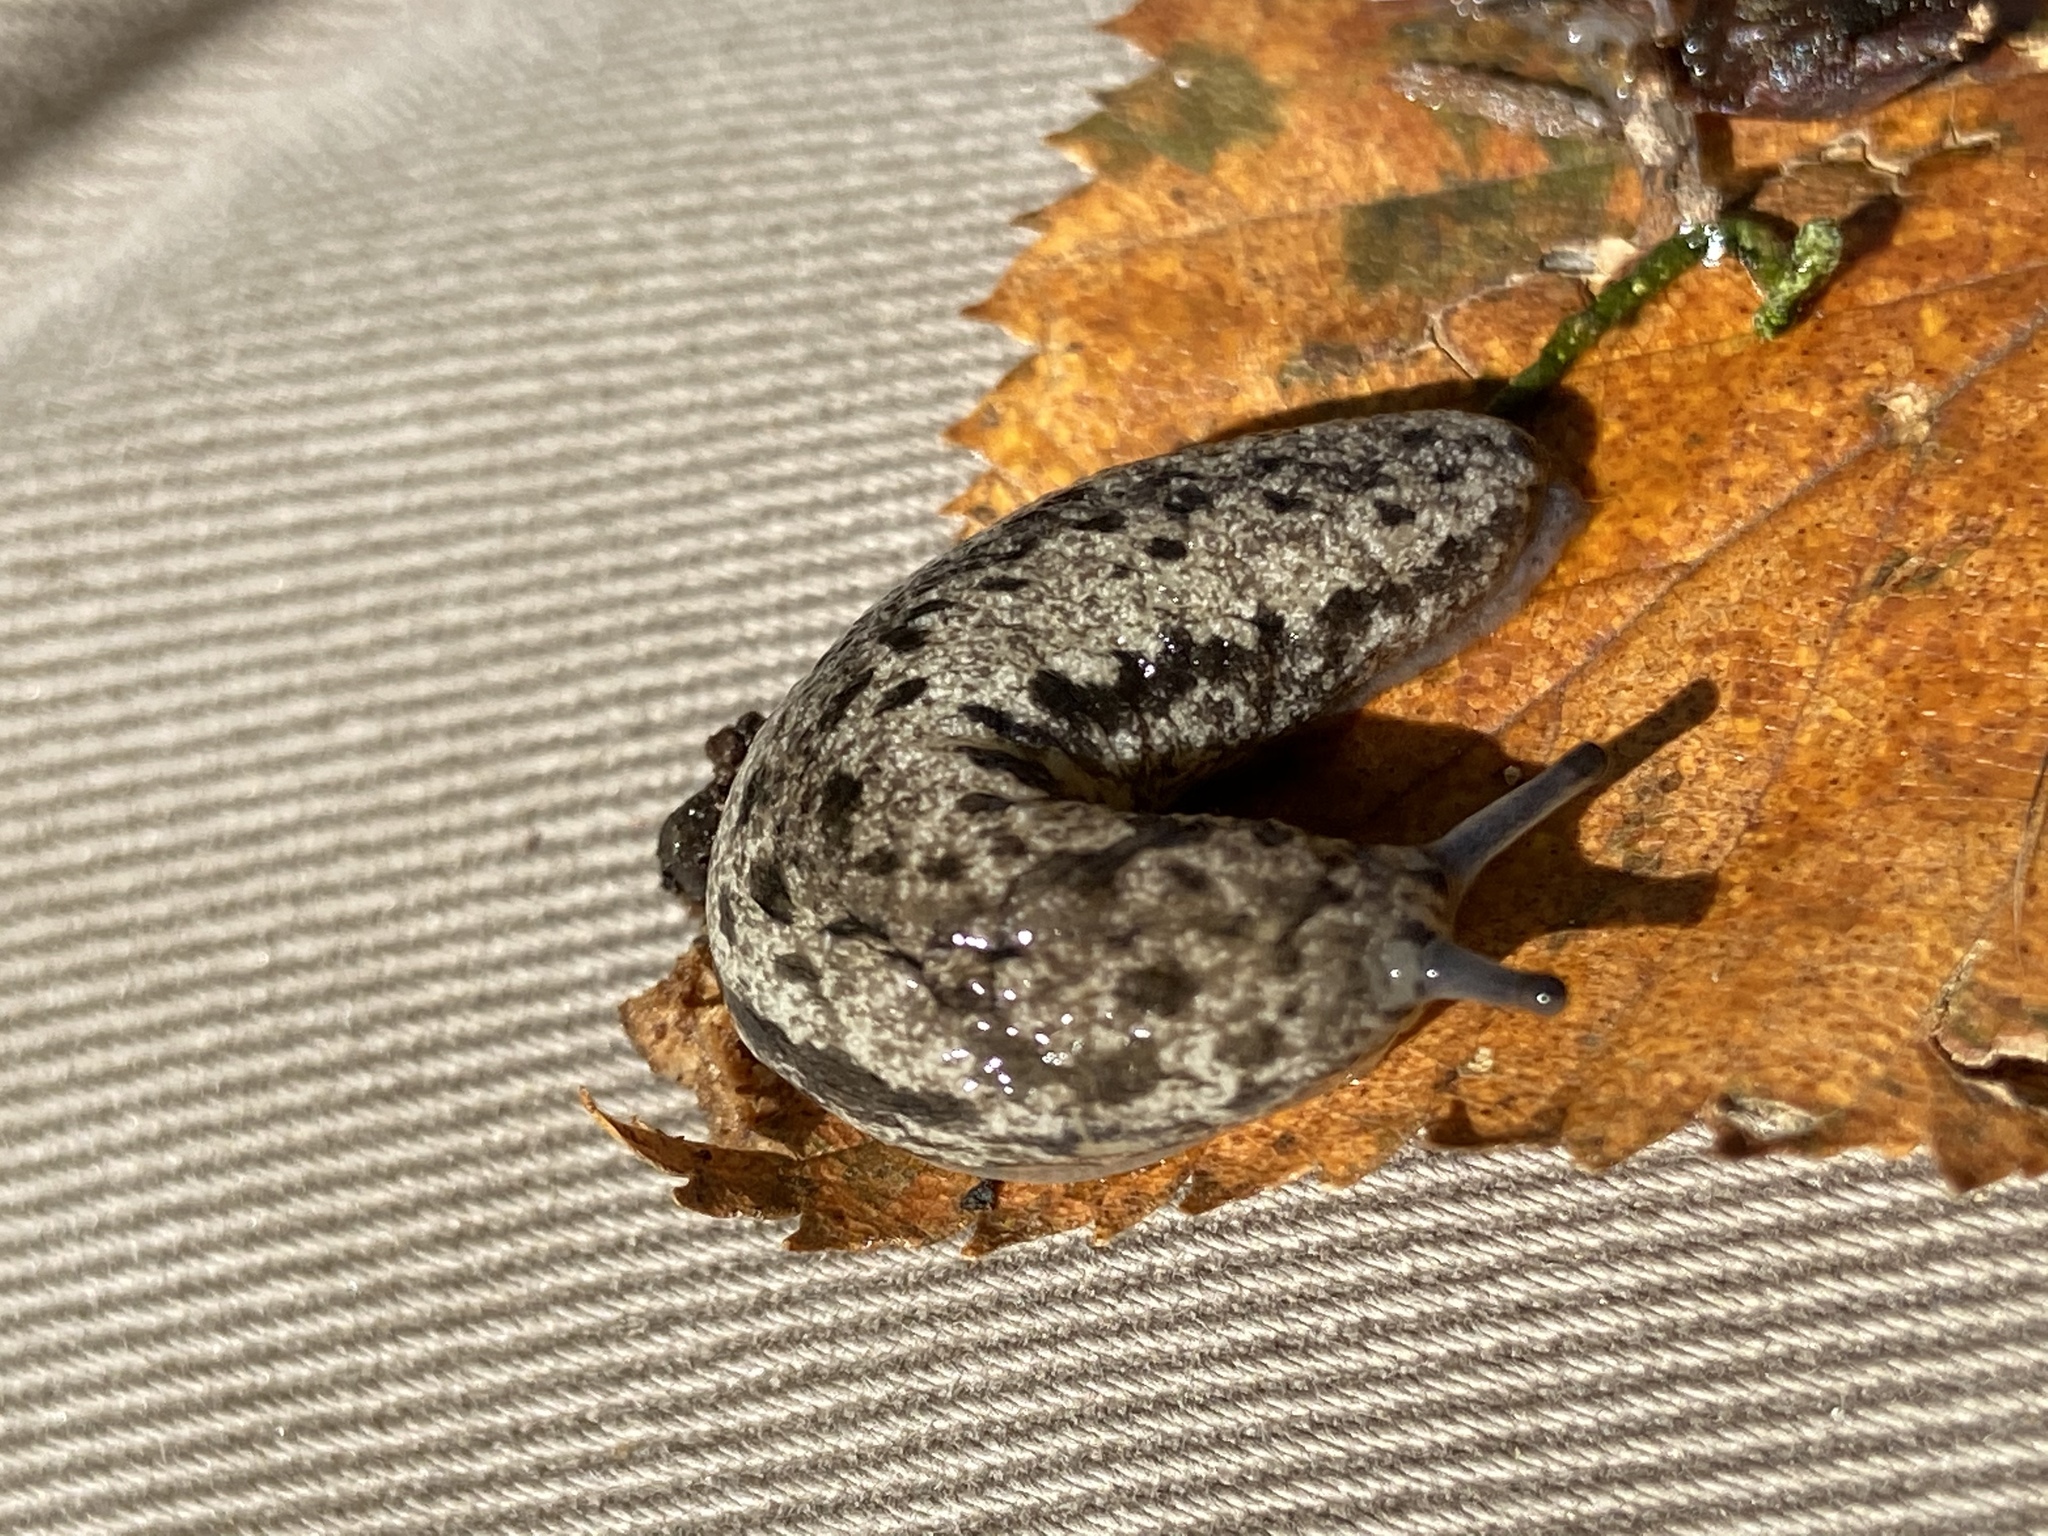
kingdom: Animalia
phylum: Mollusca
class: Gastropoda
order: Stylommatophora
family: Philomycidae
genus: Megapallifera
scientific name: Megapallifera mutabilis
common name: Changeable mantleslug
